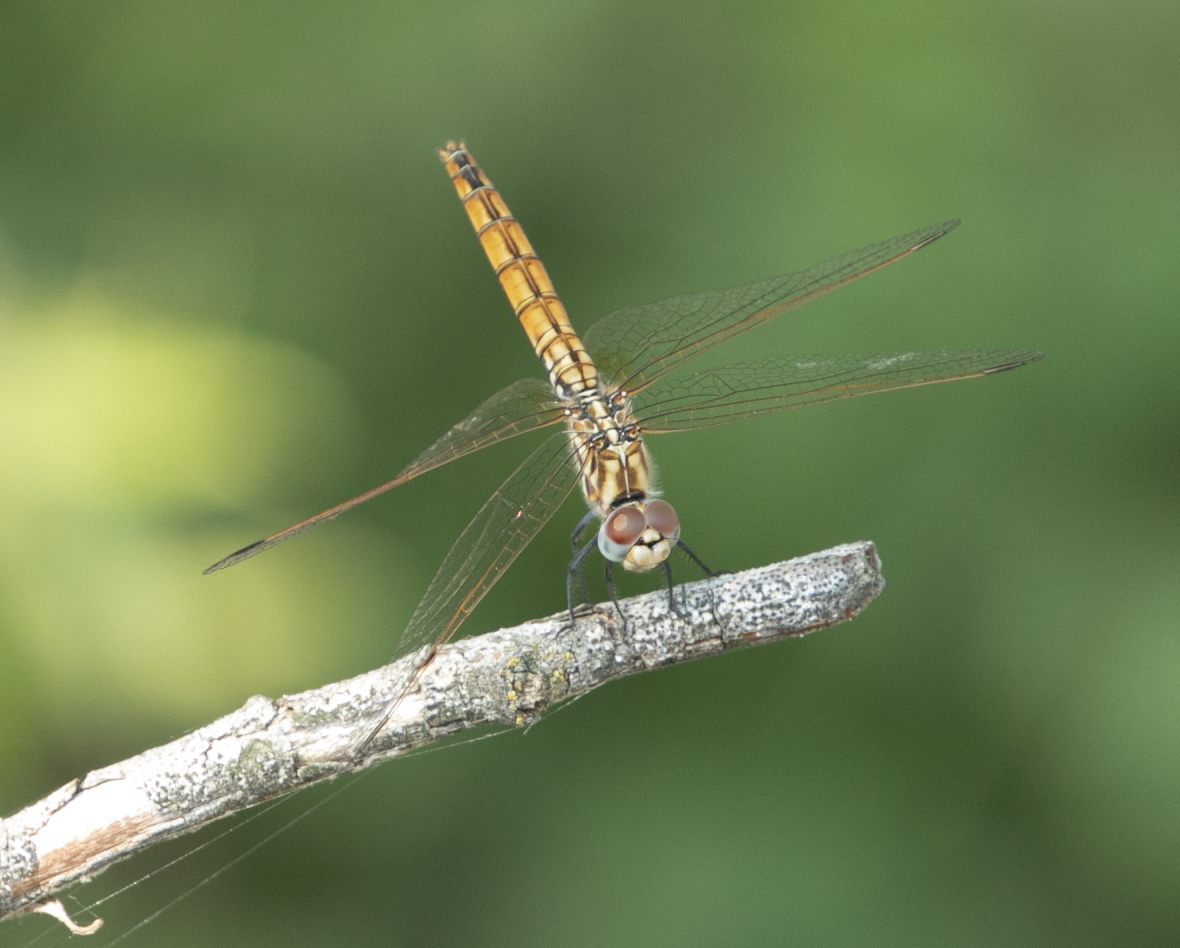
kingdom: Animalia
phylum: Arthropoda
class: Insecta
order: Odonata
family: Libellulidae
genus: Trithemis
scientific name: Trithemis annulata
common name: Violet dropwing
